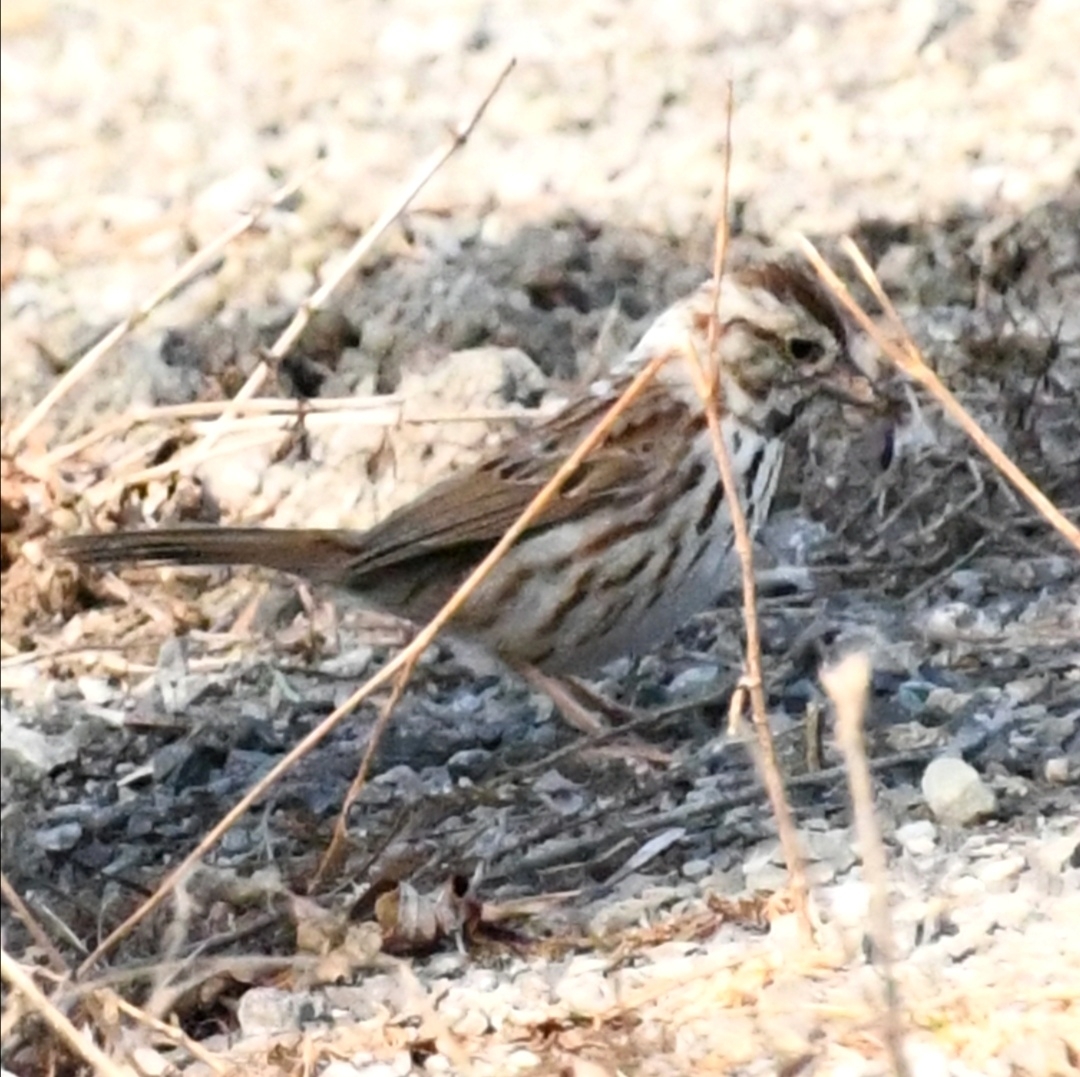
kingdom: Animalia
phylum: Chordata
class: Aves
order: Passeriformes
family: Passerellidae
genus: Melospiza
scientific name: Melospiza melodia
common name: Song sparrow
